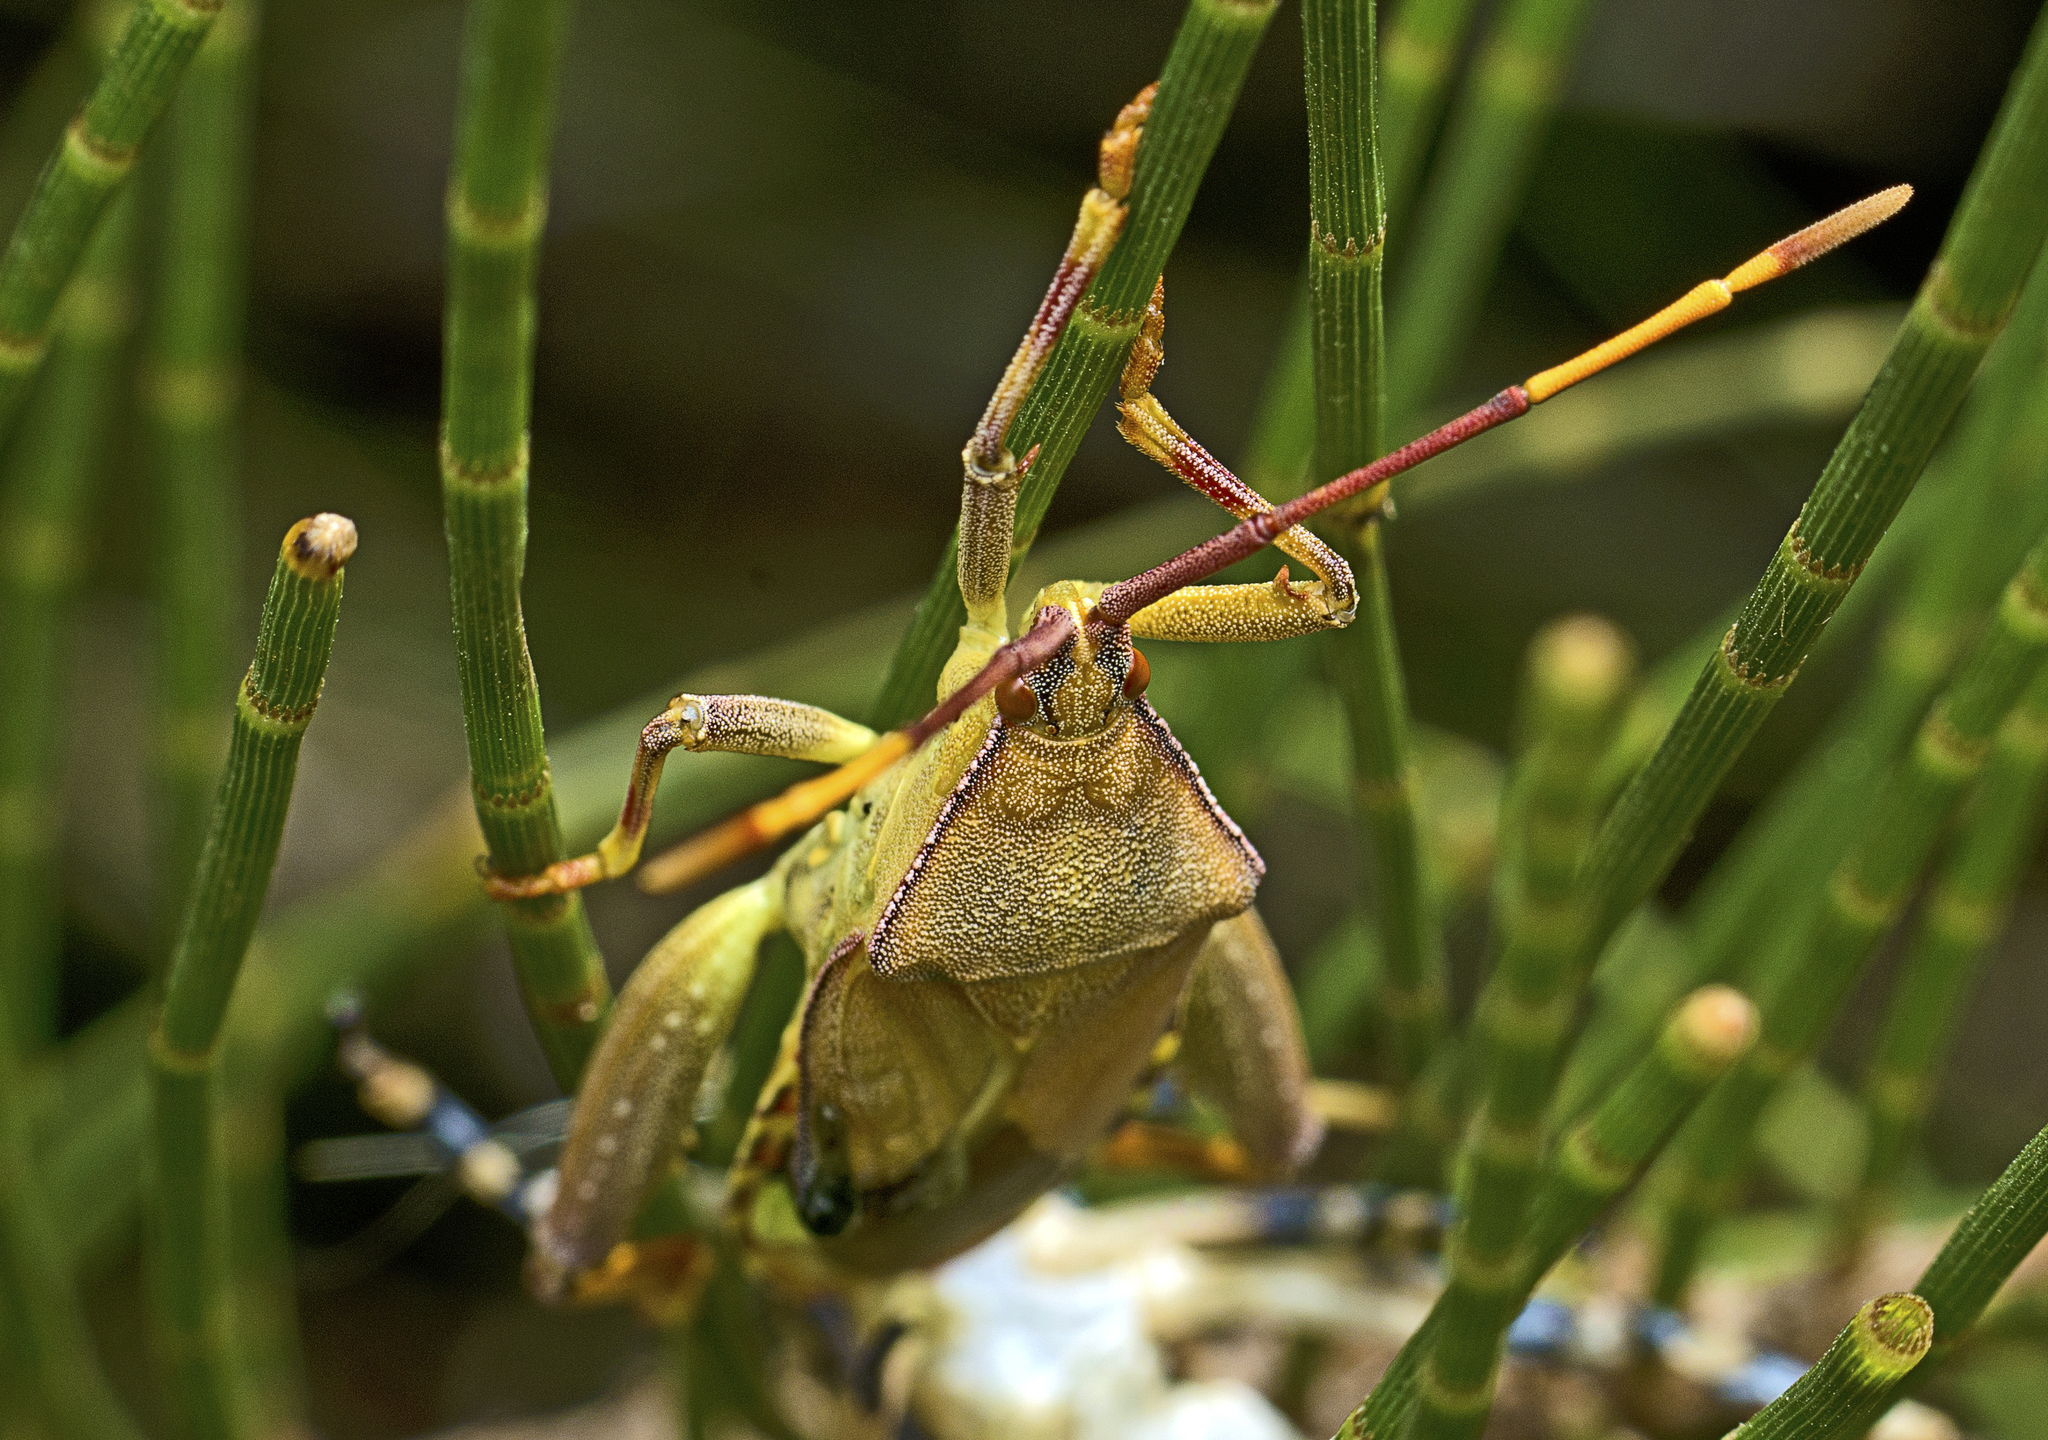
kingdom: Animalia
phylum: Arthropoda
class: Insecta
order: Hemiptera
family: Coreidae
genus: Amorbus
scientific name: Amorbus alternatus
